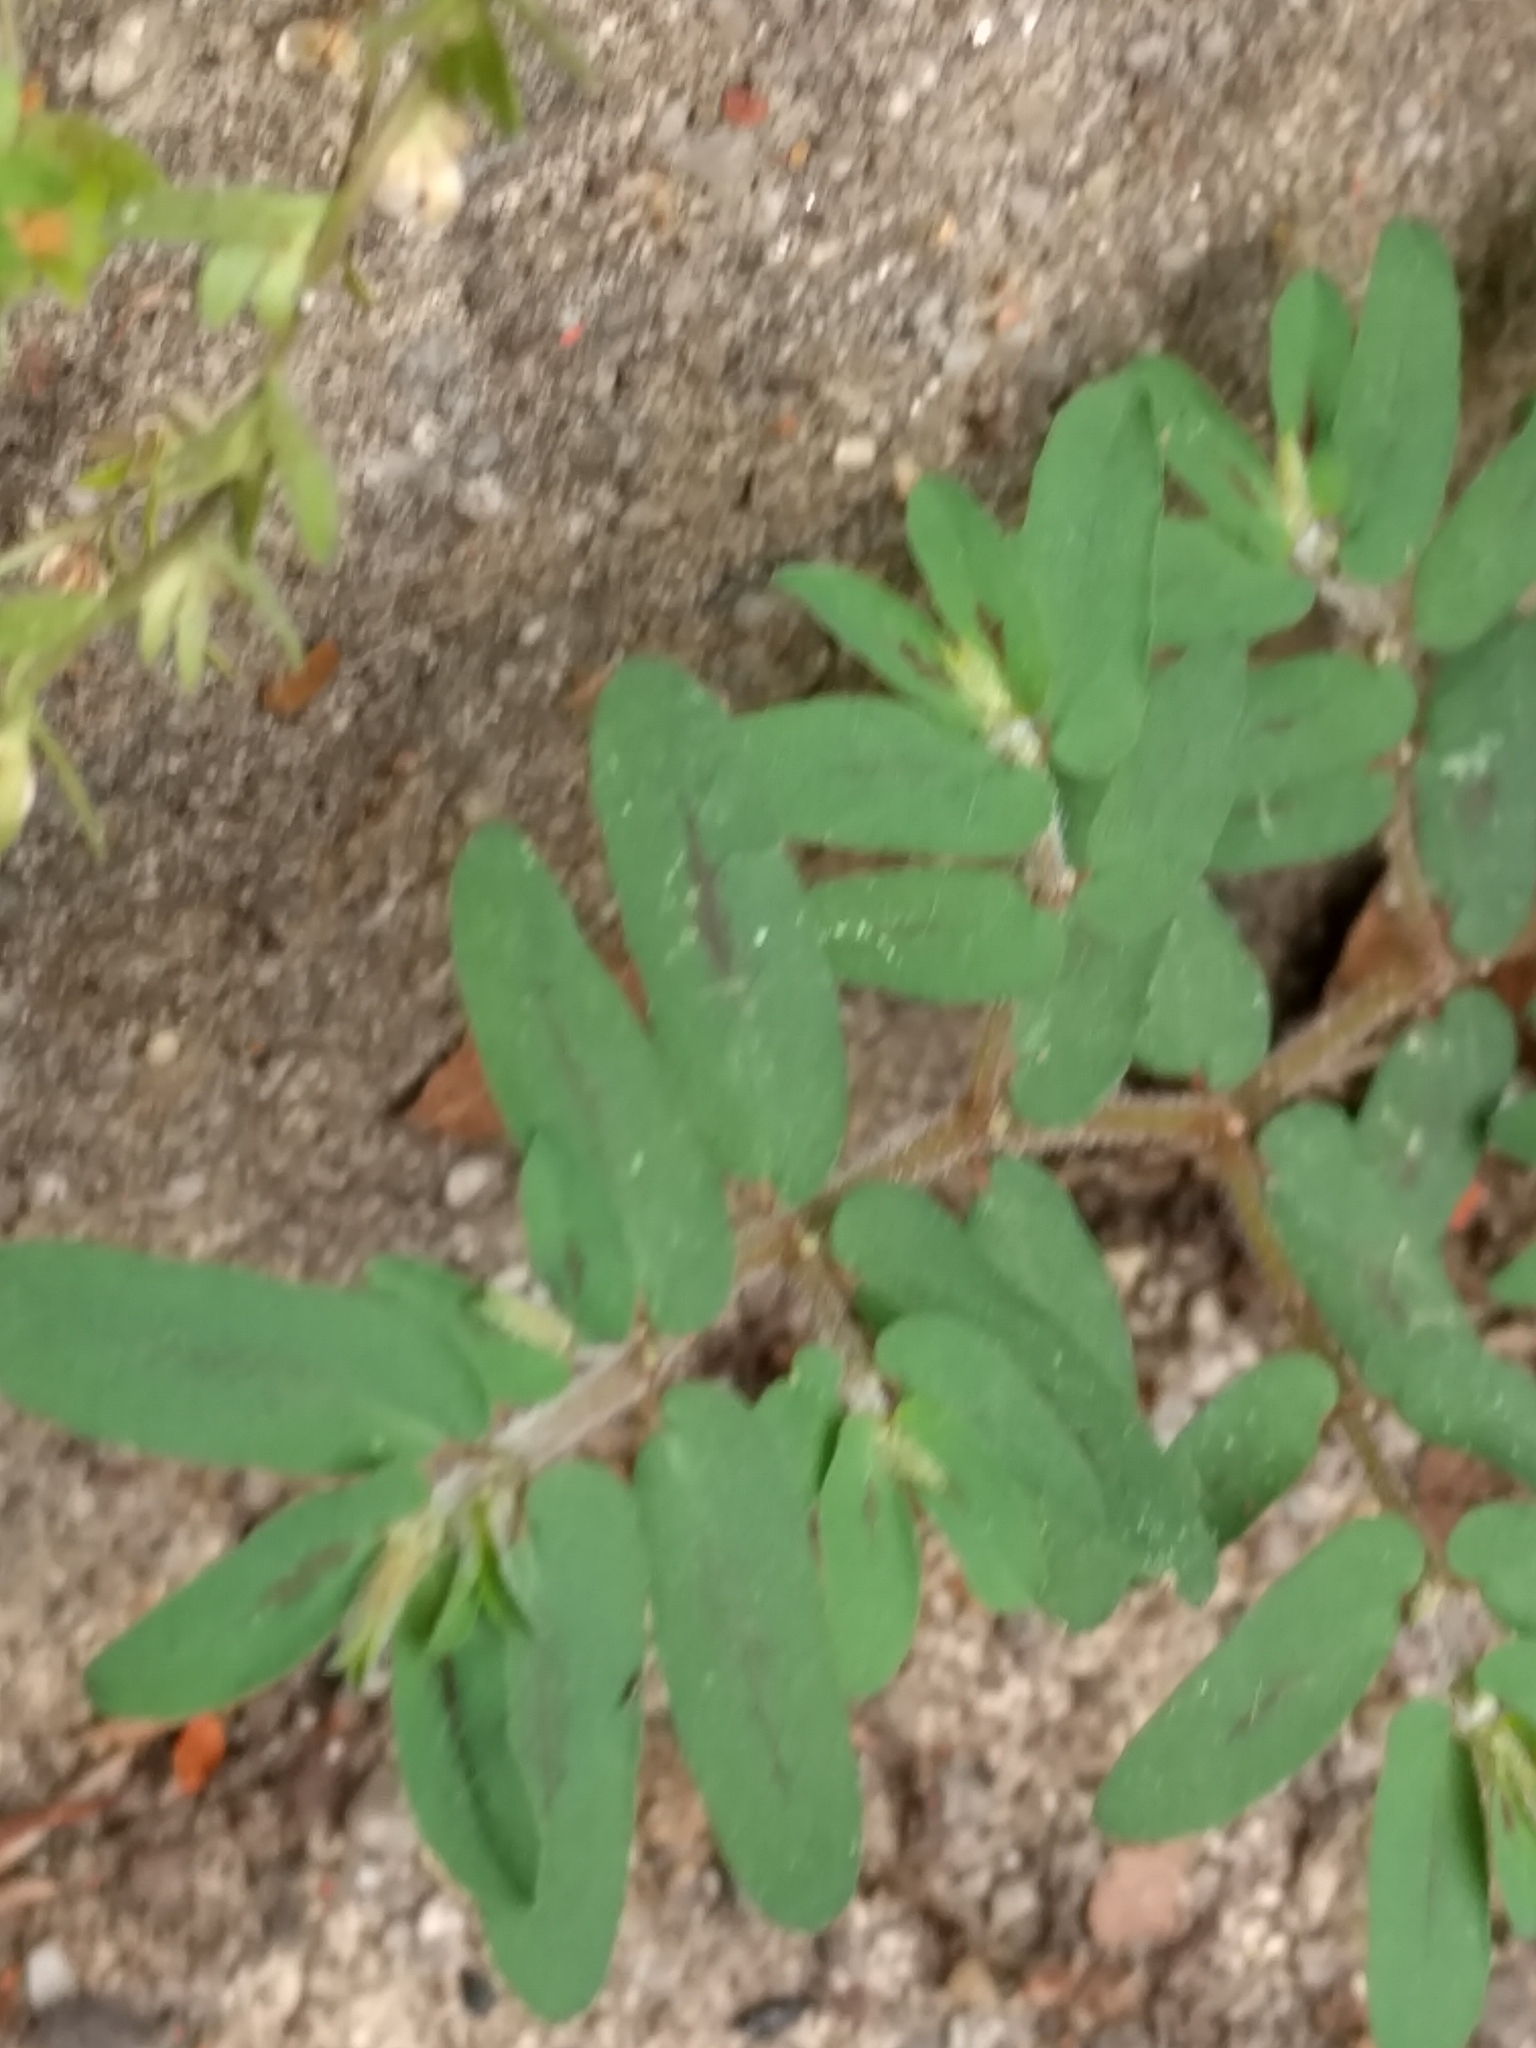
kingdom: Plantae
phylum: Tracheophyta
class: Magnoliopsida
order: Malpighiales
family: Euphorbiaceae
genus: Euphorbia
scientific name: Euphorbia maculata
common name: Spotted spurge
